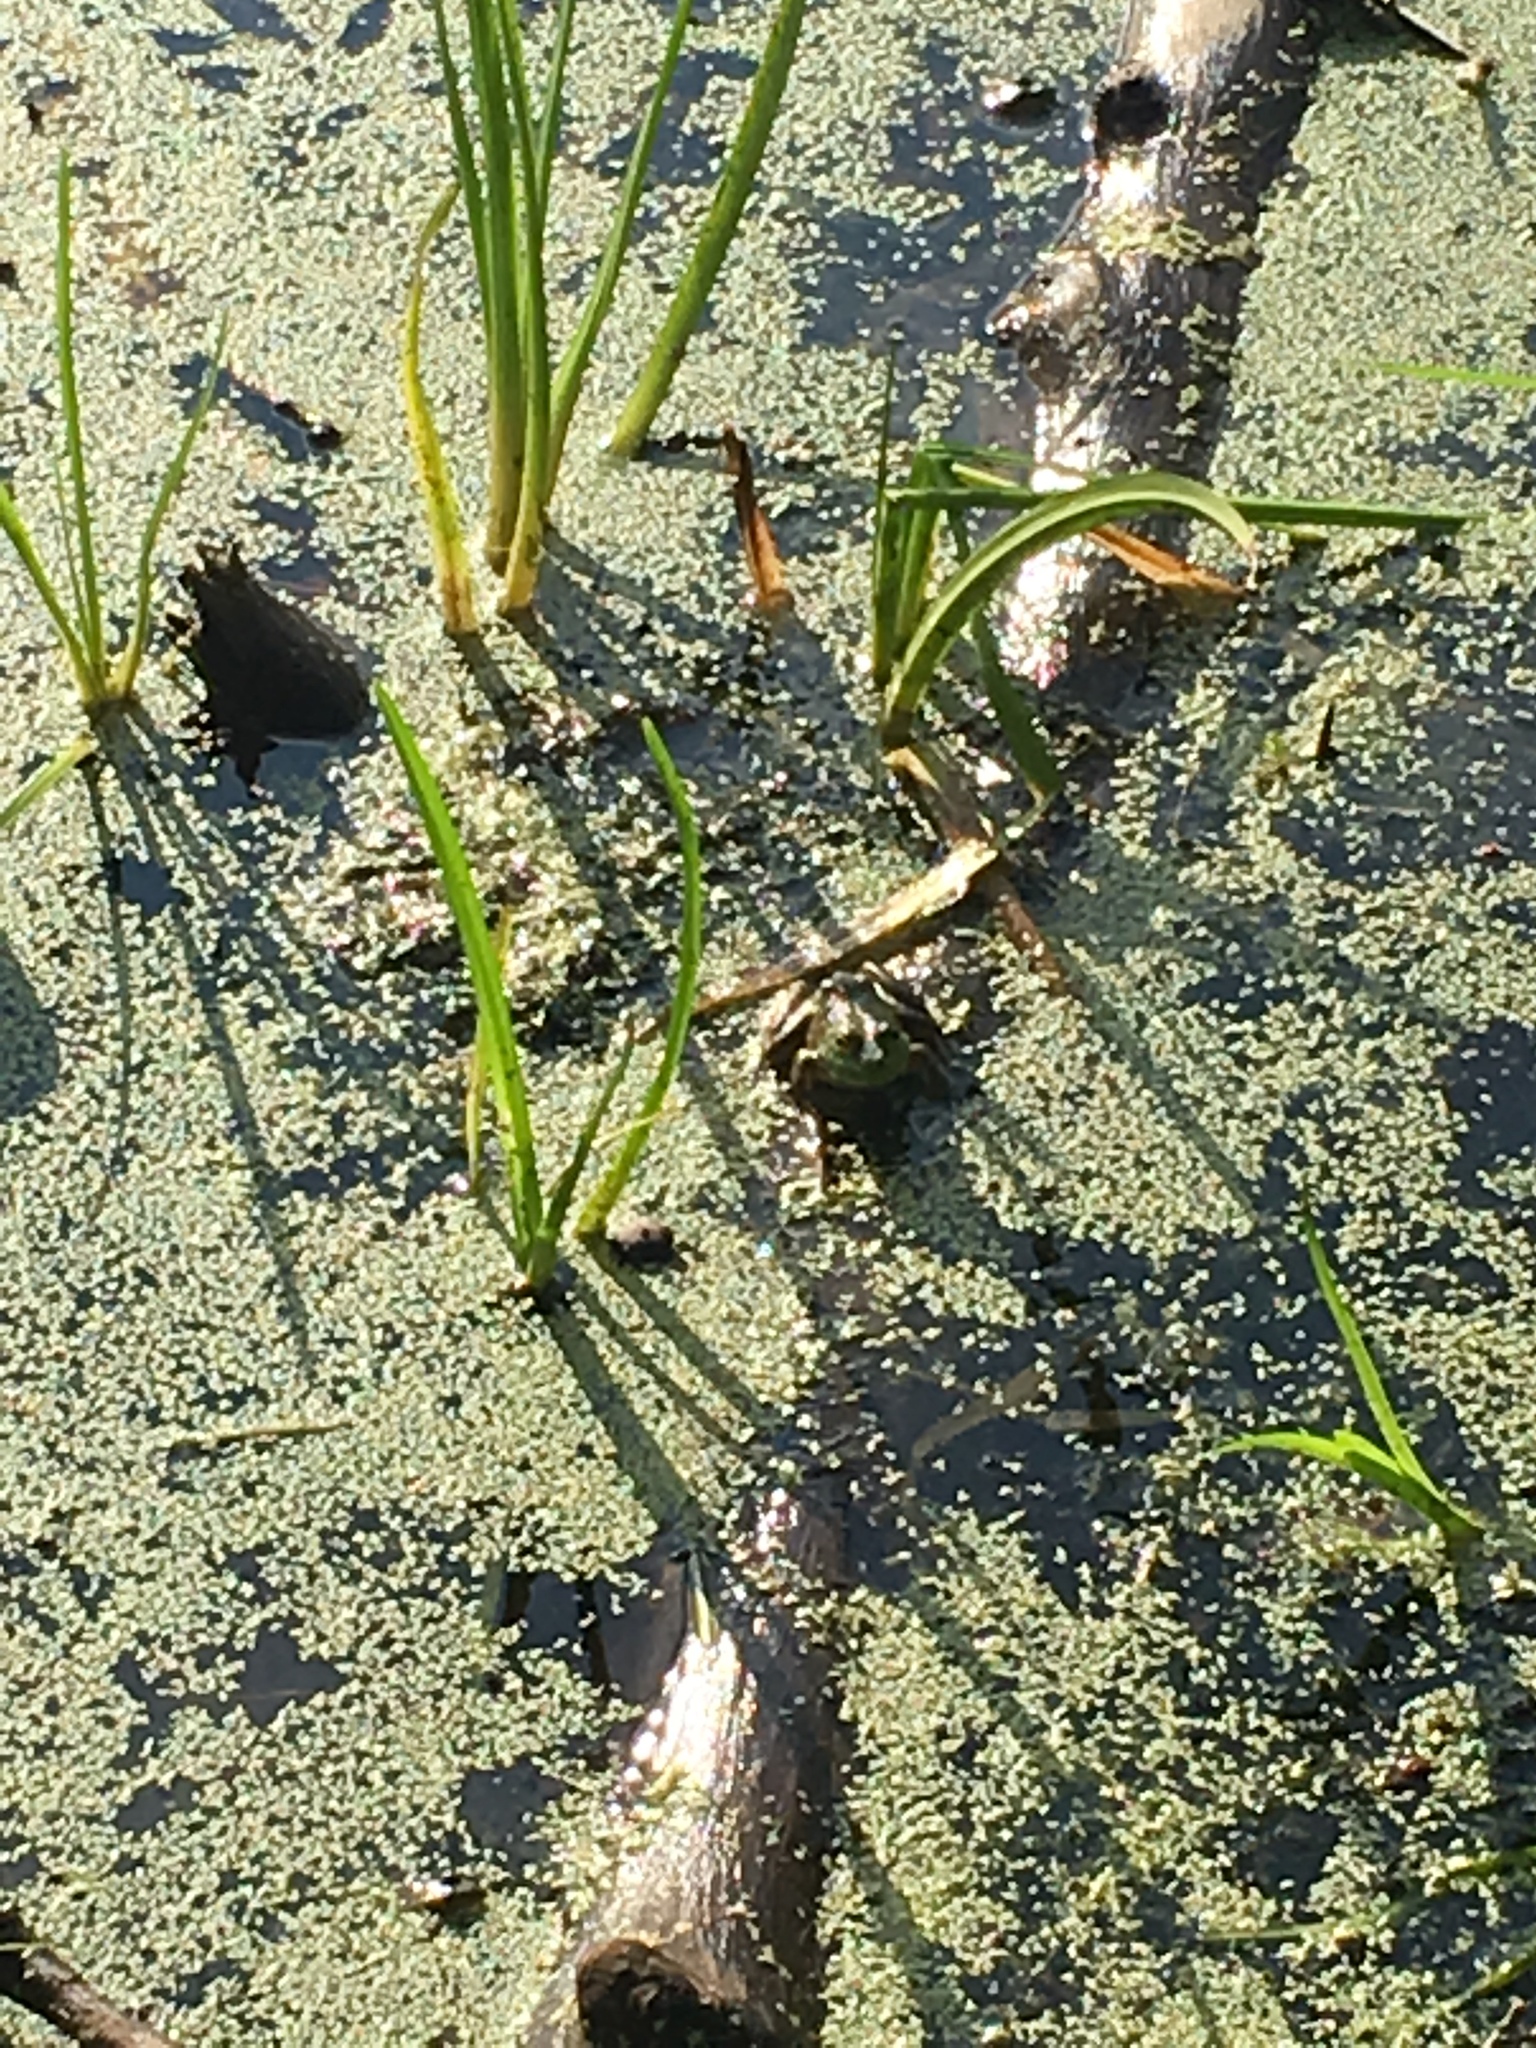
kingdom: Animalia
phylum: Chordata
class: Amphibia
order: Anura
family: Ranidae
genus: Lithobates
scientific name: Lithobates catesbeianus
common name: American bullfrog
